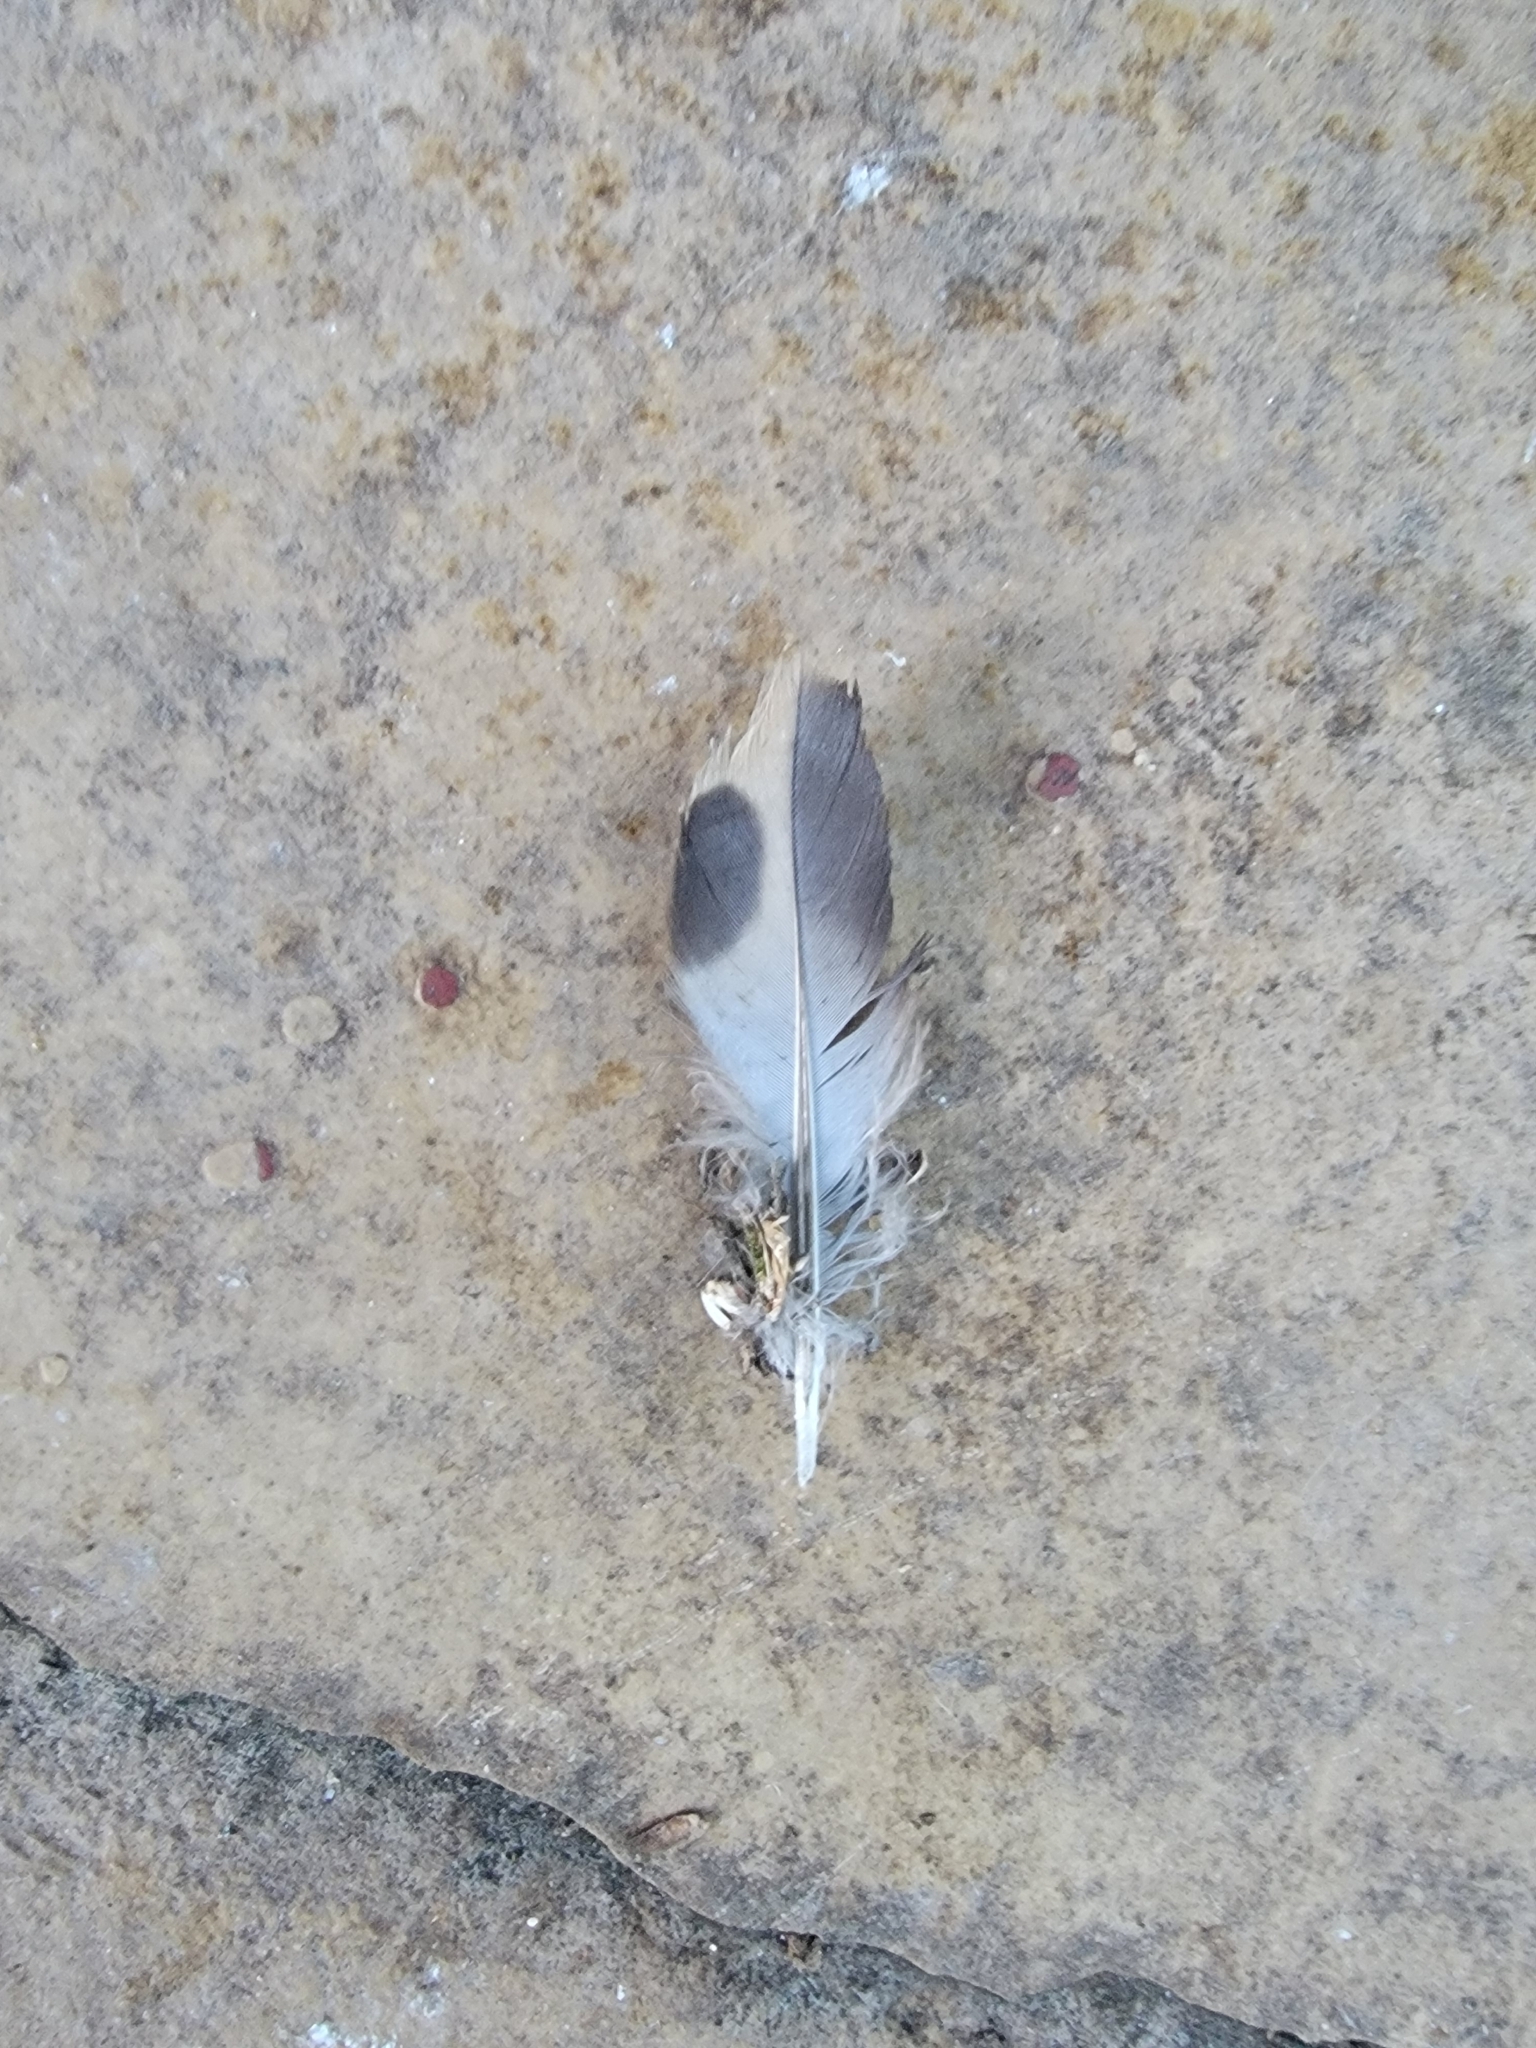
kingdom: Animalia
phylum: Chordata
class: Aves
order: Columbiformes
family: Columbidae
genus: Zenaida
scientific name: Zenaida macroura
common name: Mourning dove
